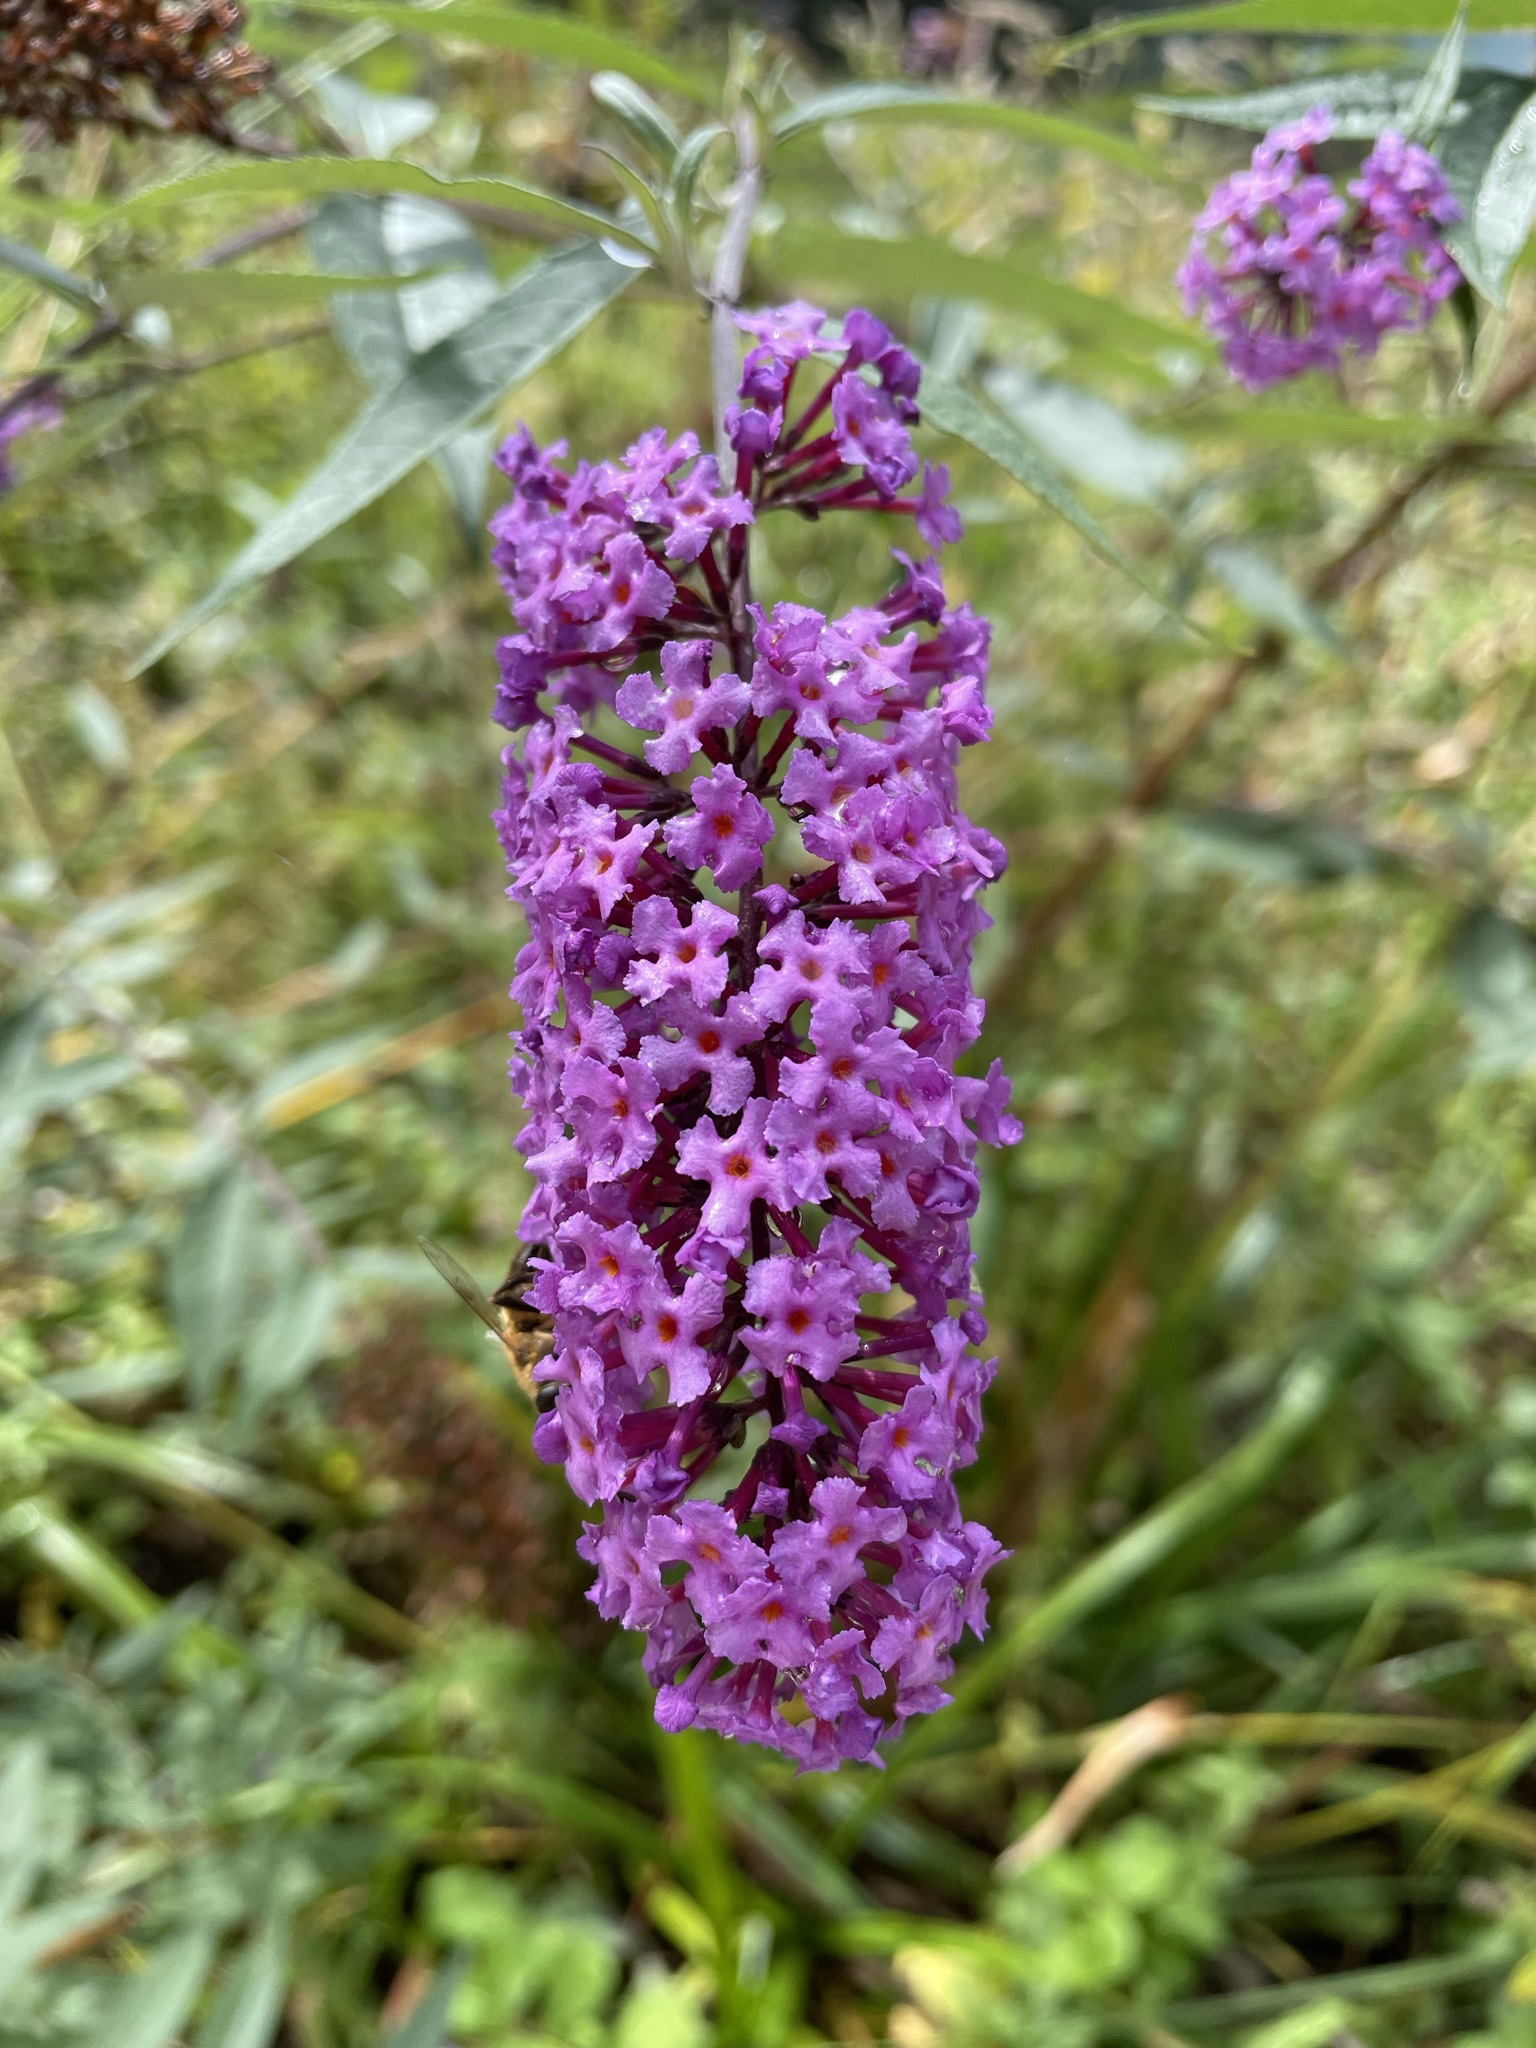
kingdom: Plantae
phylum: Tracheophyta
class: Magnoliopsida
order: Lamiales
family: Scrophulariaceae
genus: Buddleja
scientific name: Buddleja davidii
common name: Butterfly-bush
